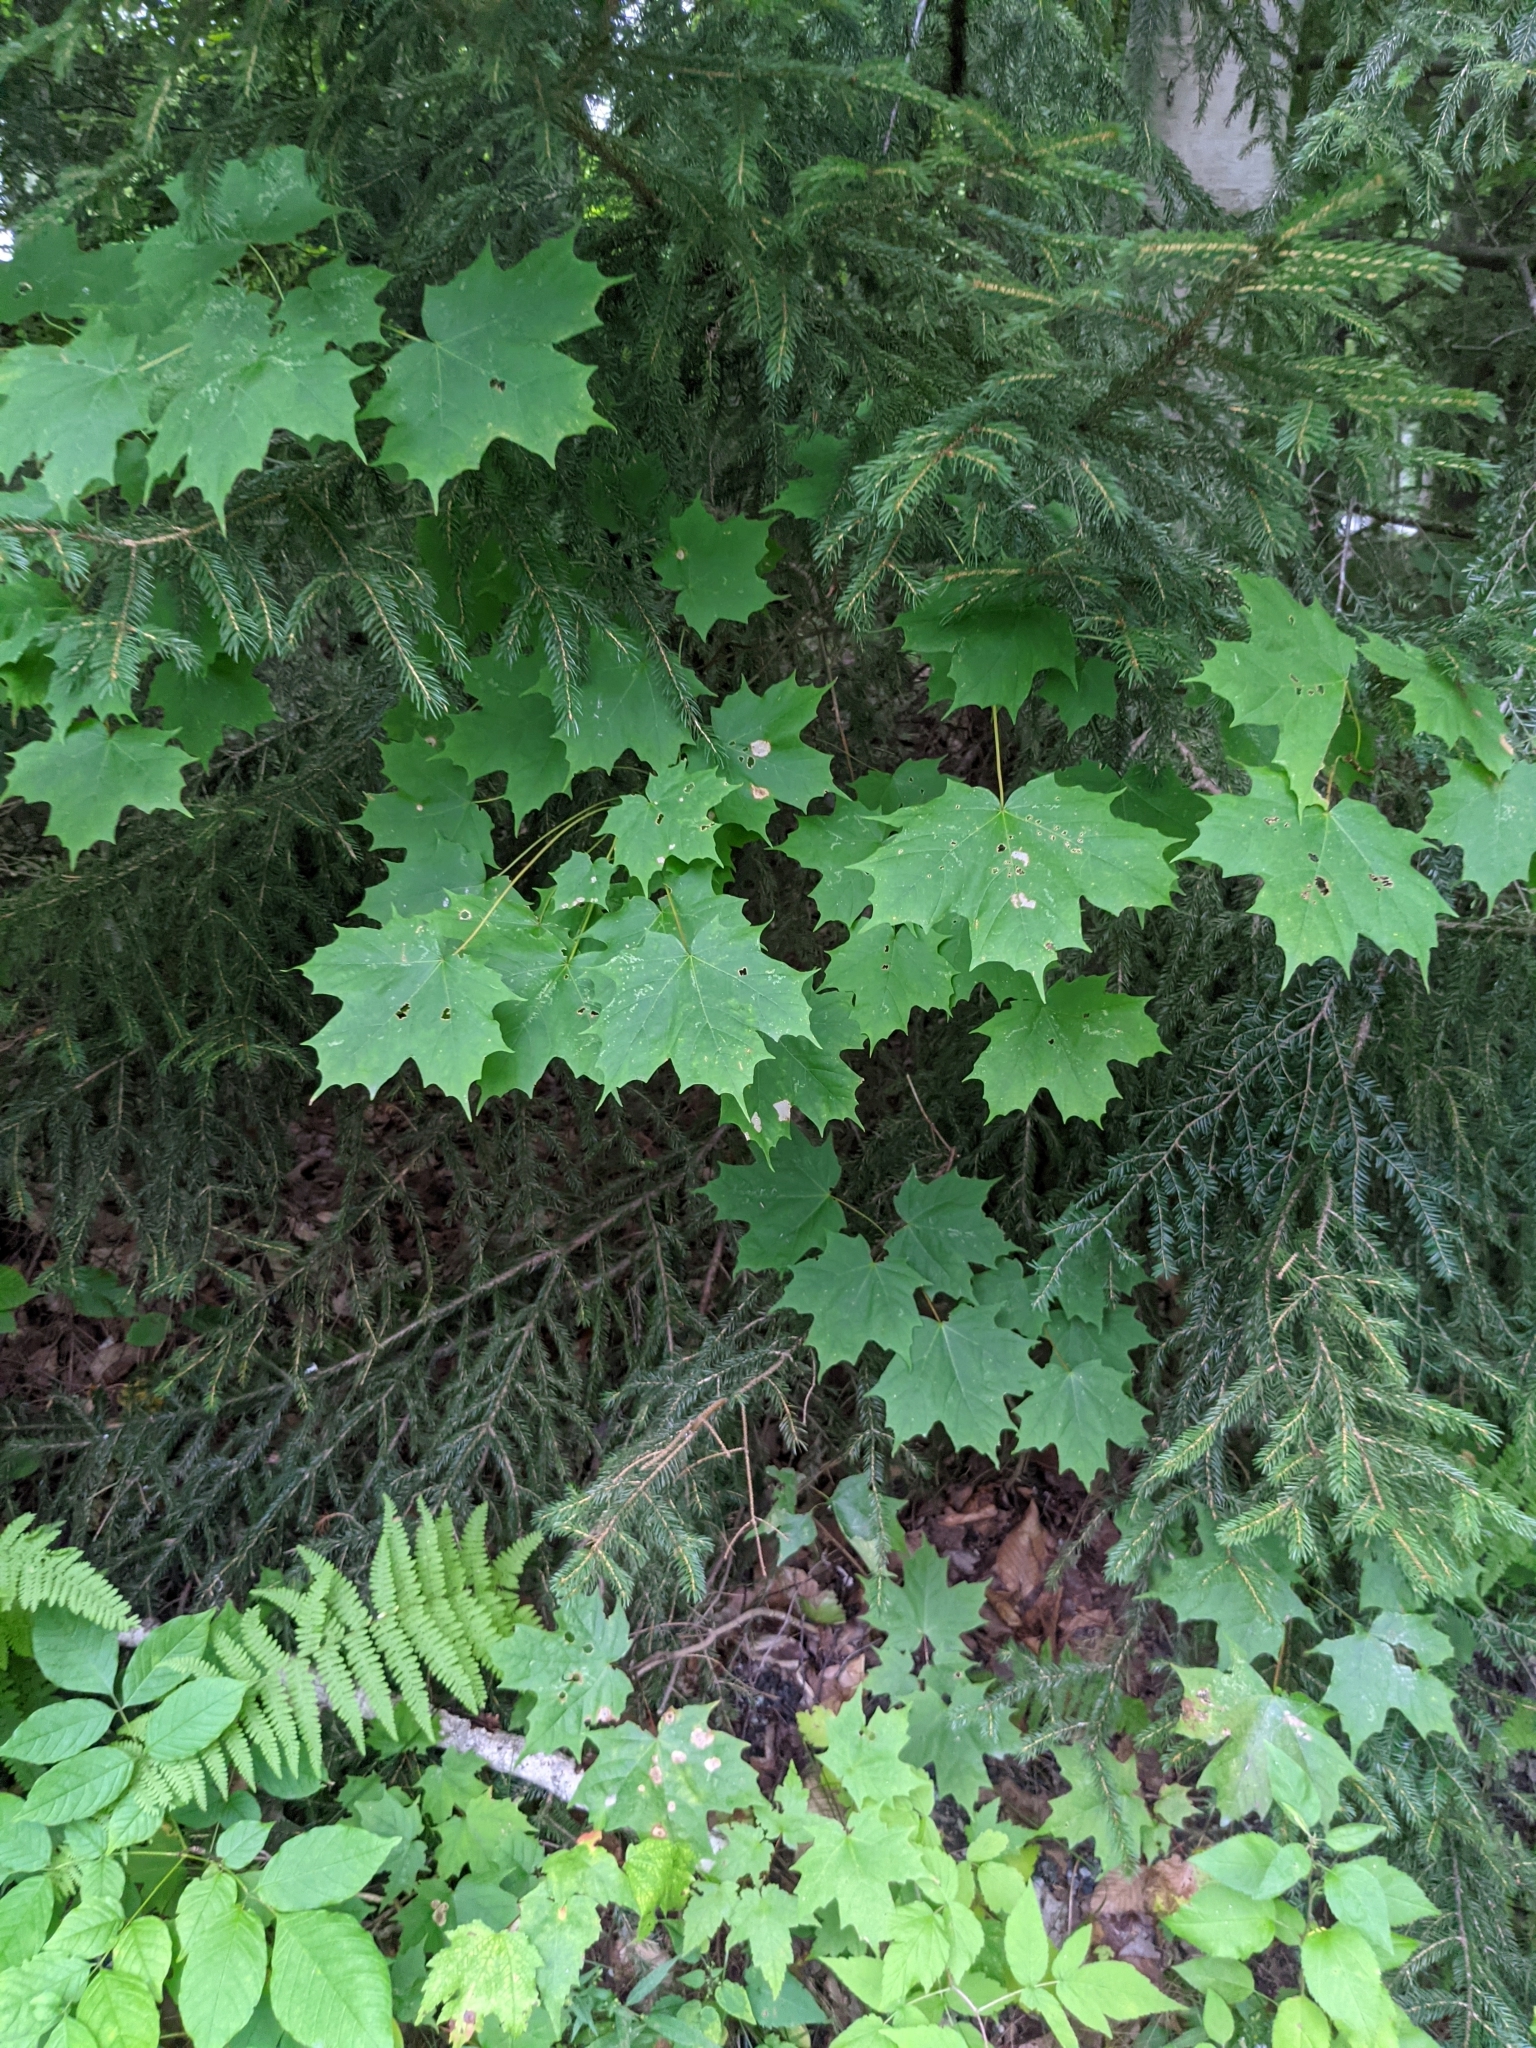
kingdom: Plantae
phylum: Tracheophyta
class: Magnoliopsida
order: Sapindales
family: Sapindaceae
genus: Acer
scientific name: Acer saccharum
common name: Sugar maple
